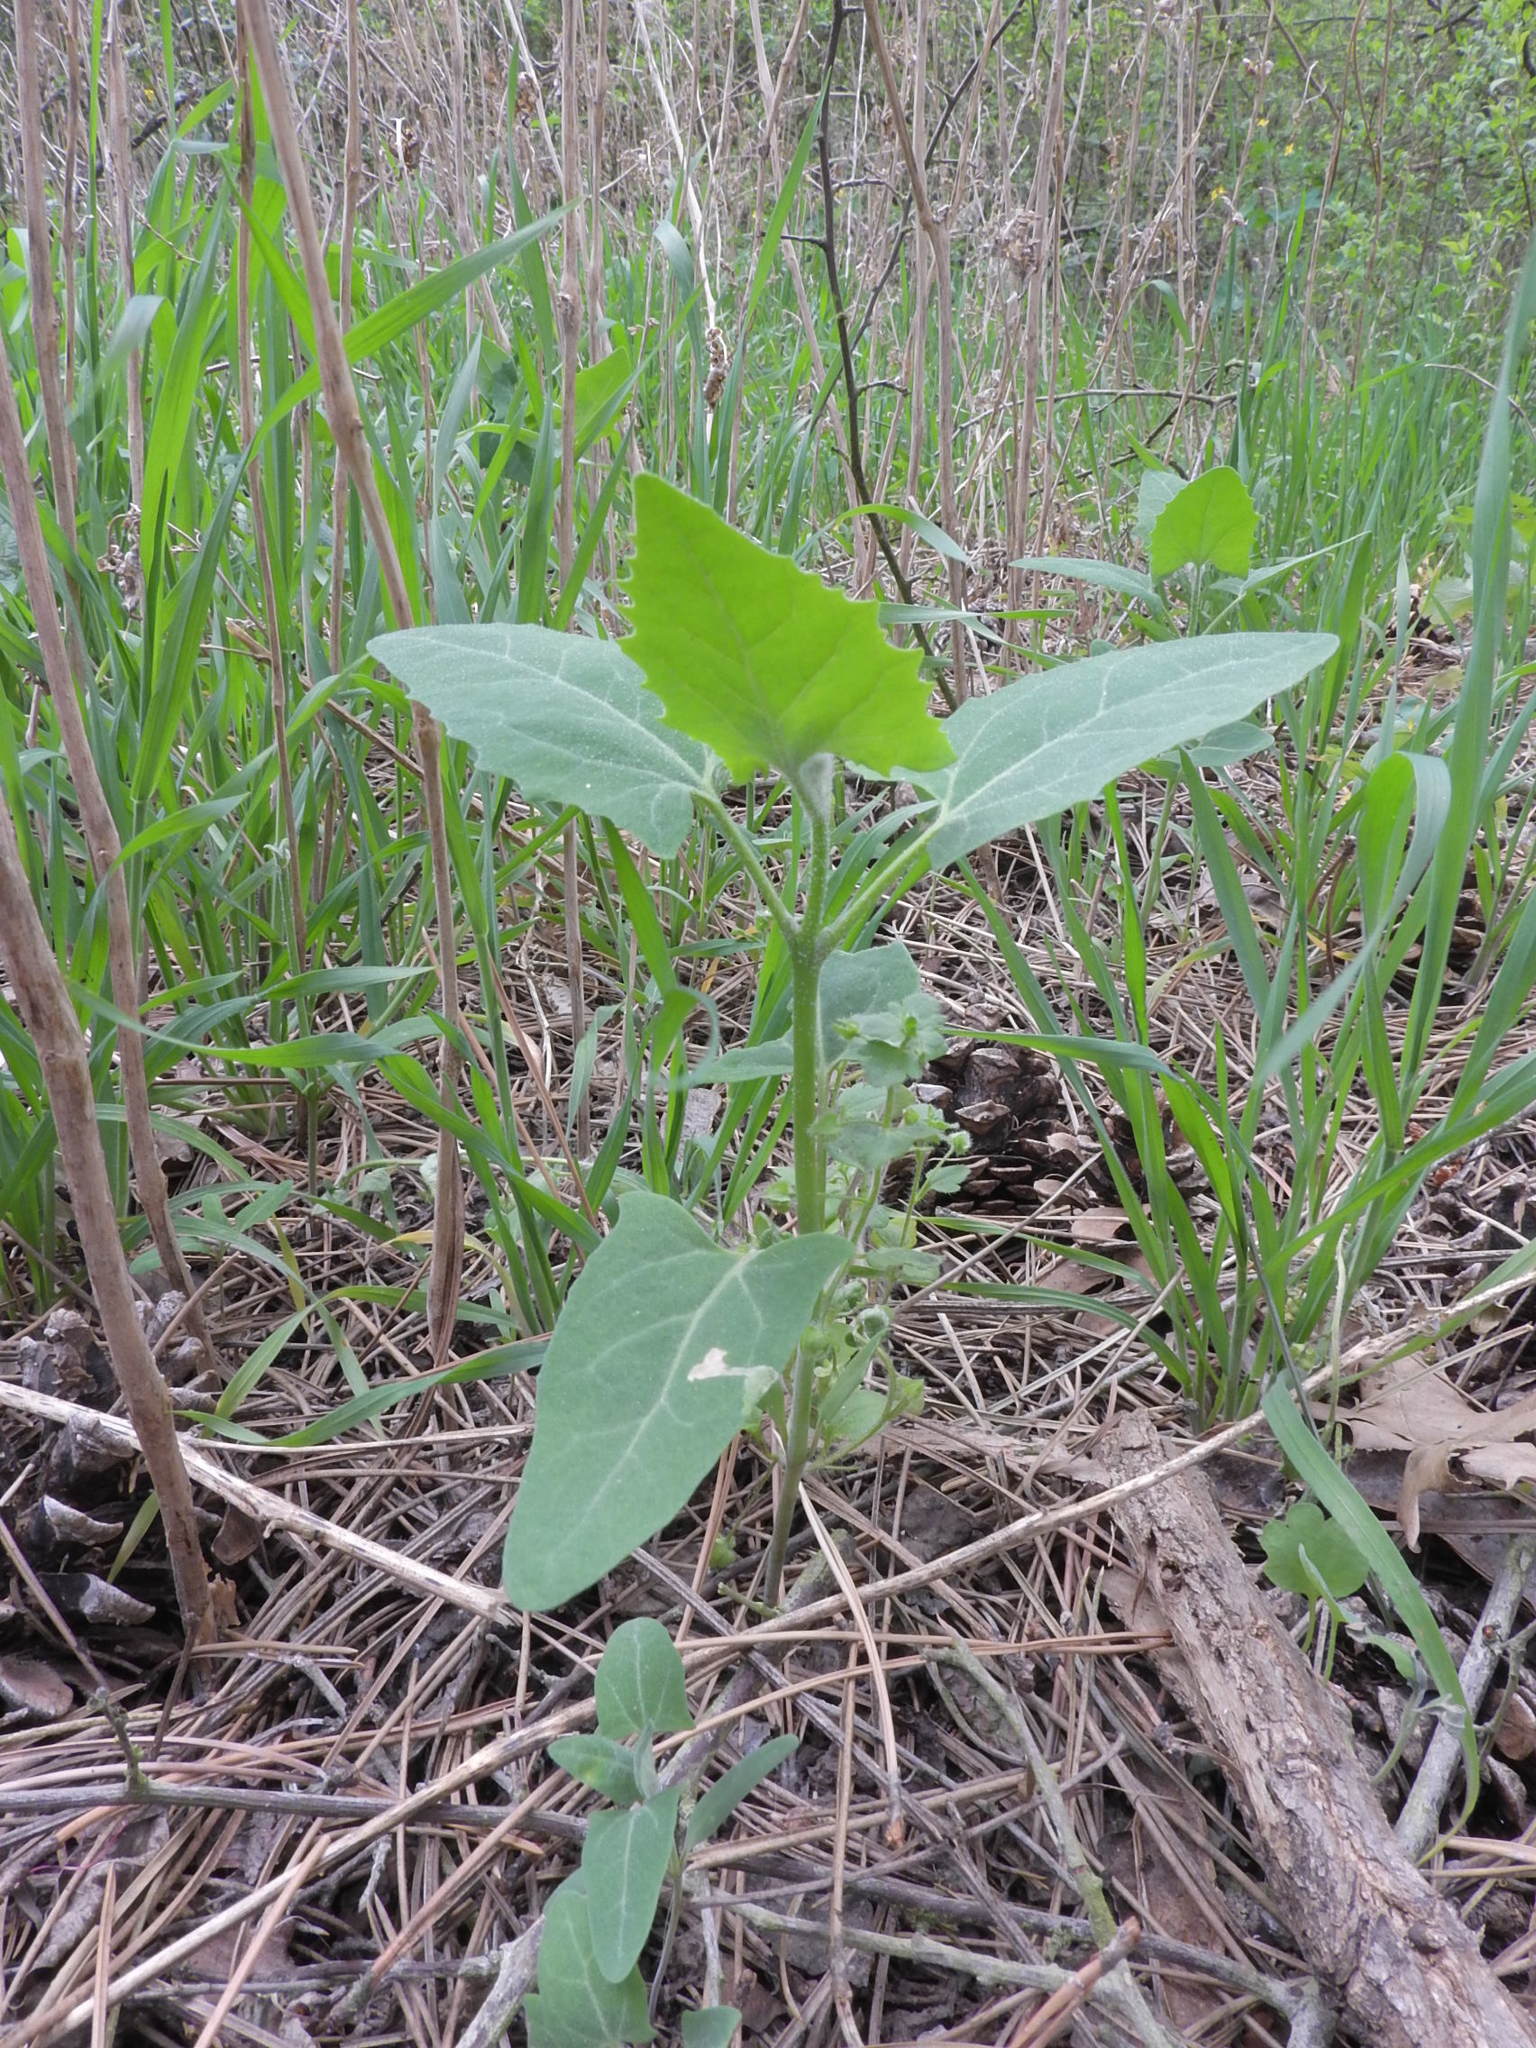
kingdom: Plantae
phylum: Tracheophyta
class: Magnoliopsida
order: Caryophyllales
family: Amaranthaceae
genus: Atriplex
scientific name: Atriplex sagittata
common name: Purple orache
